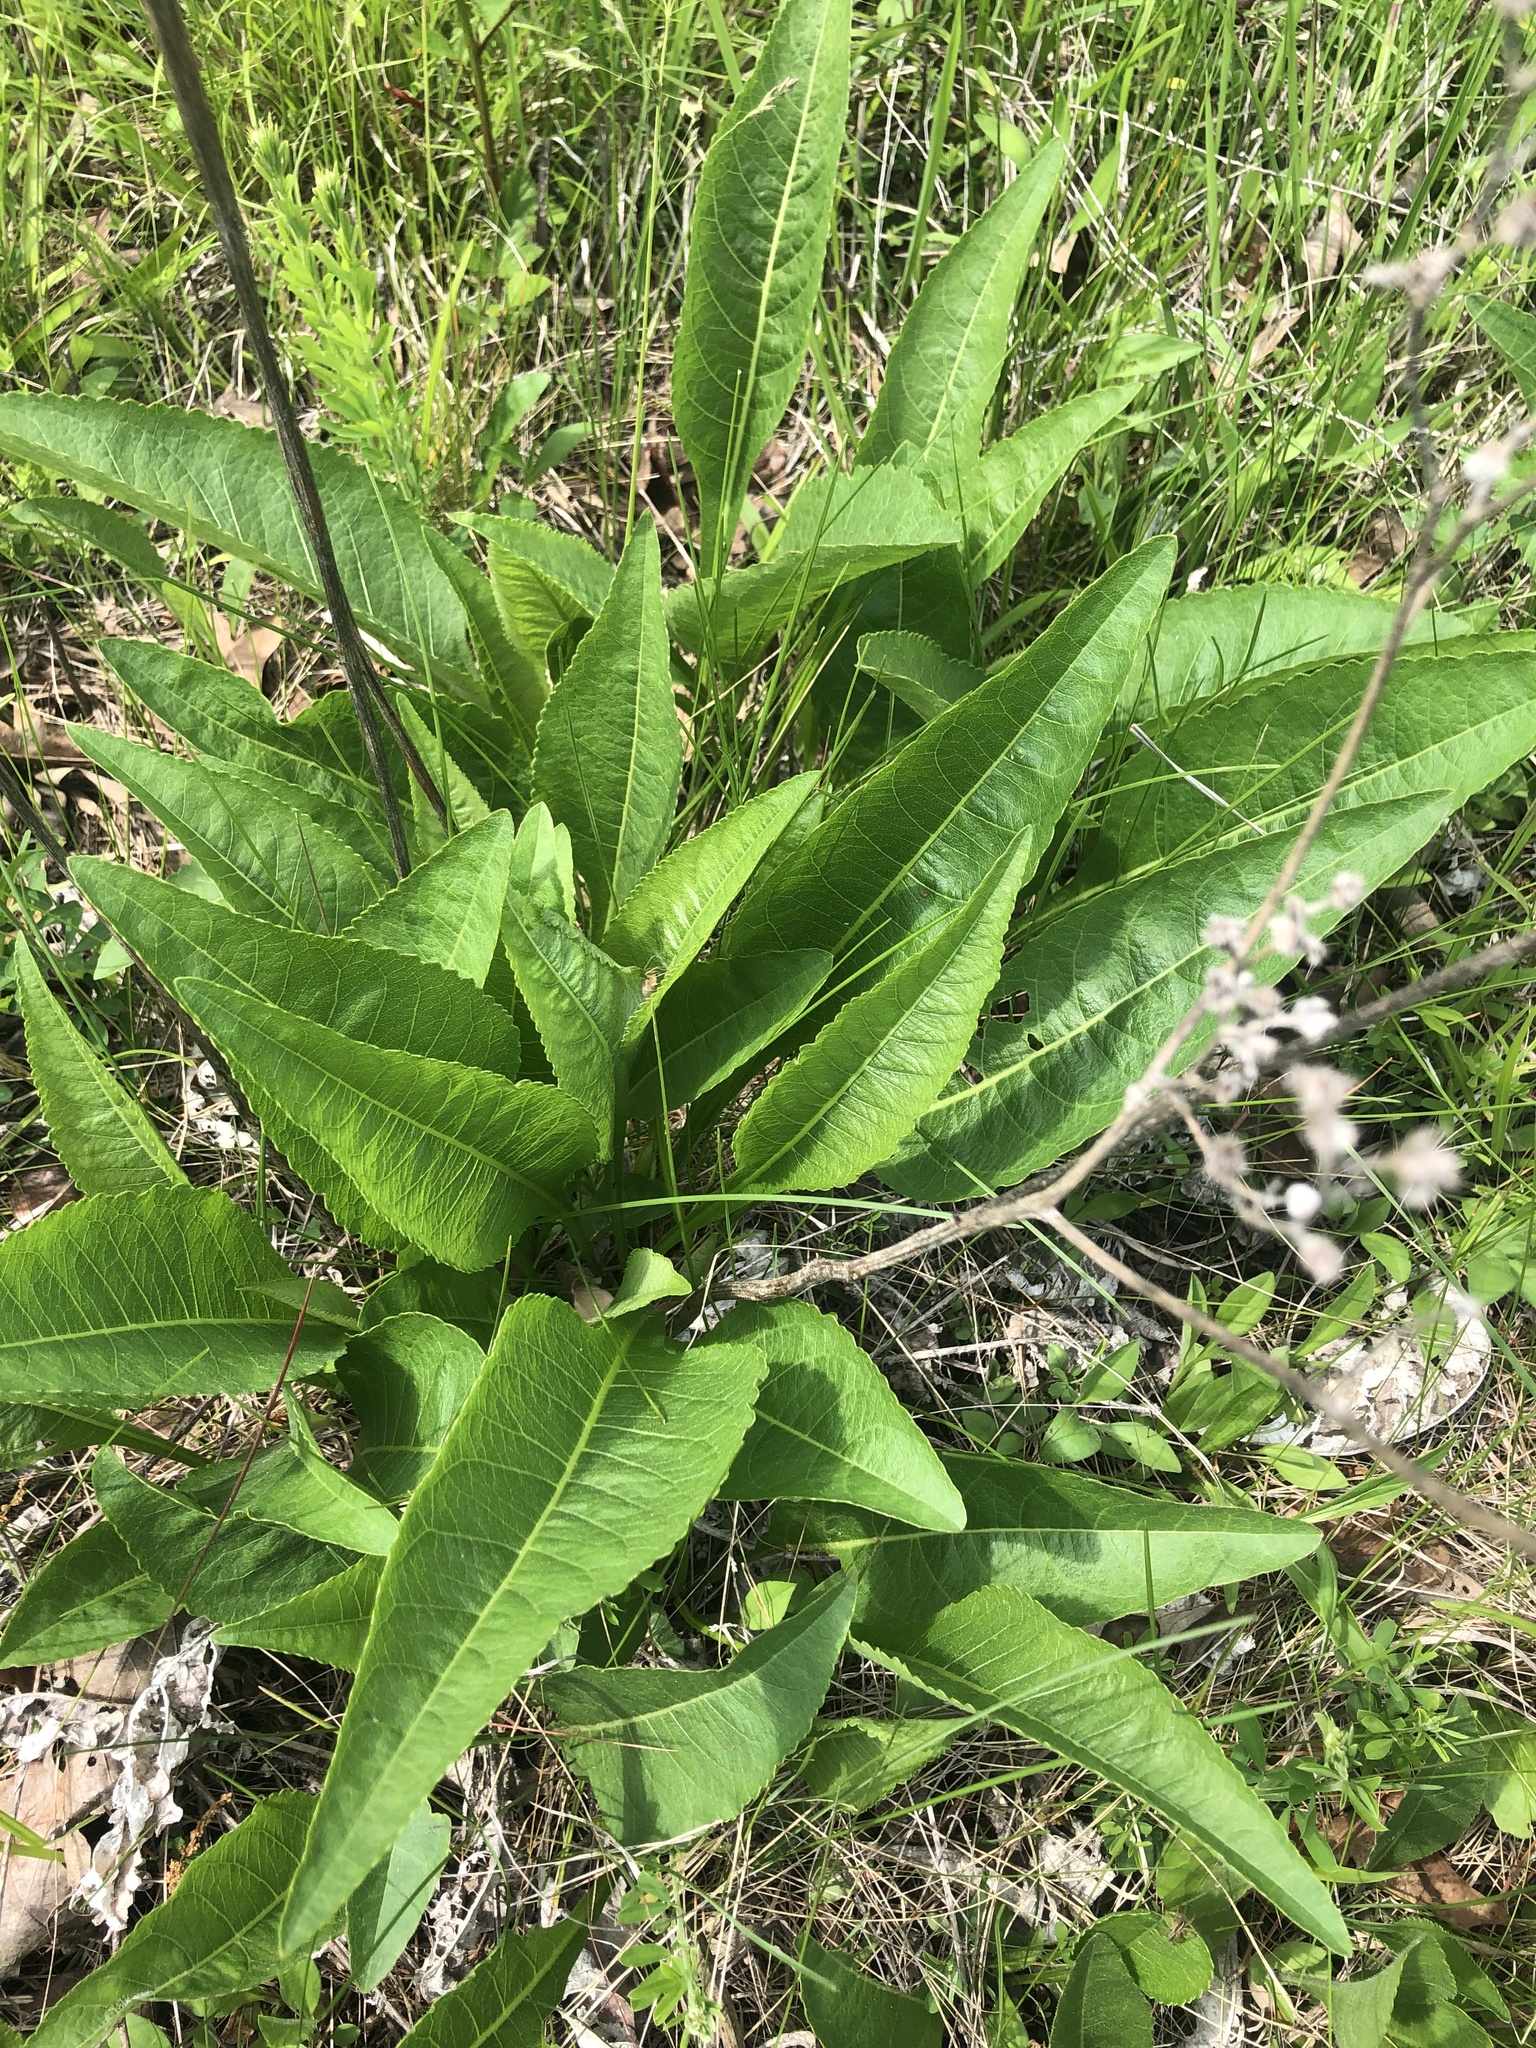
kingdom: Plantae
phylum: Tracheophyta
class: Magnoliopsida
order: Asterales
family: Asteraceae
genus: Parthenium
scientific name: Parthenium integrifolium
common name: American feverfew
